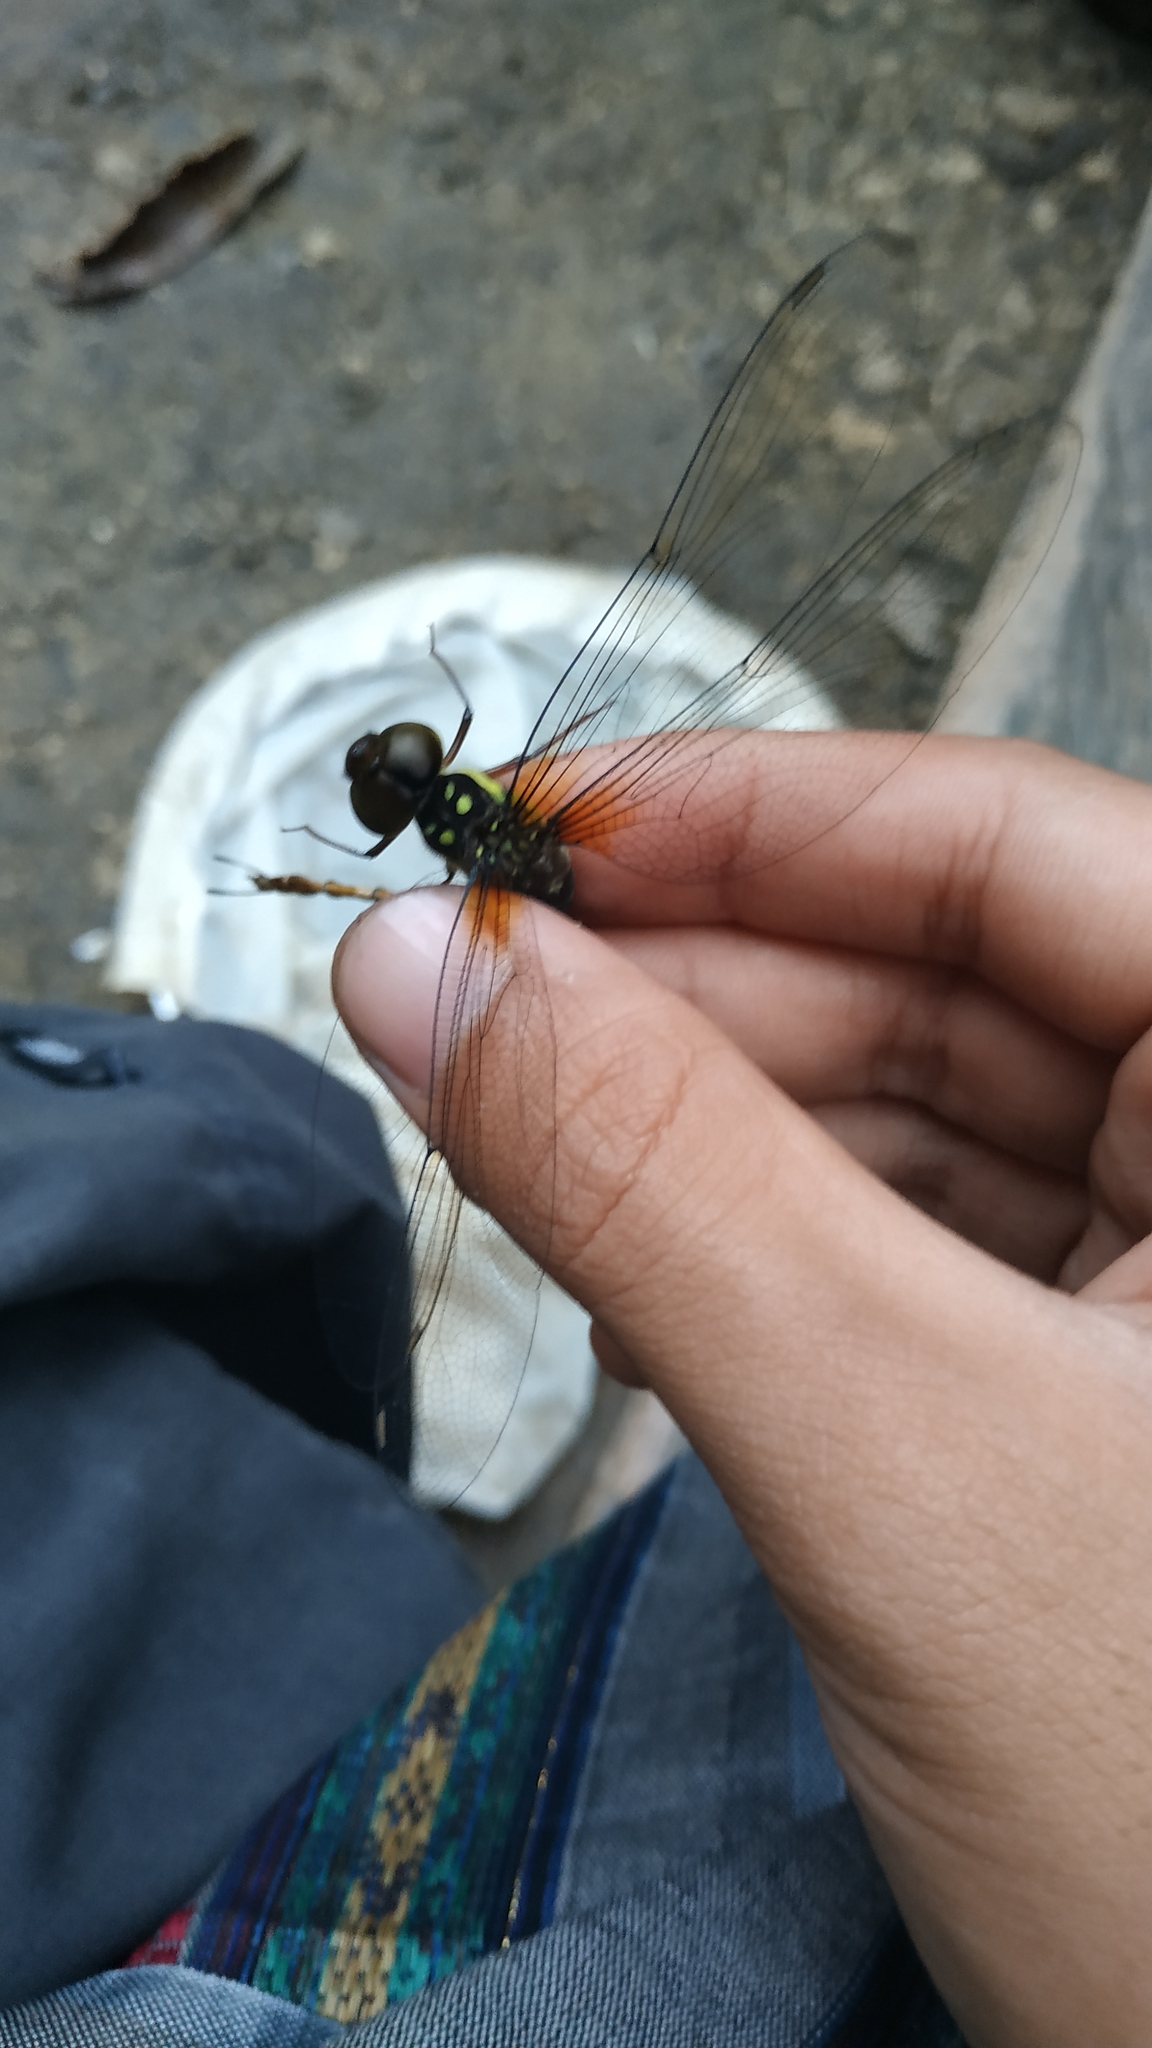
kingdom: Animalia
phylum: Arthropoda
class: Insecta
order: Odonata
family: Aeshnidae
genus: Heliaeschna
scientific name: Heliaeschna filostyla
